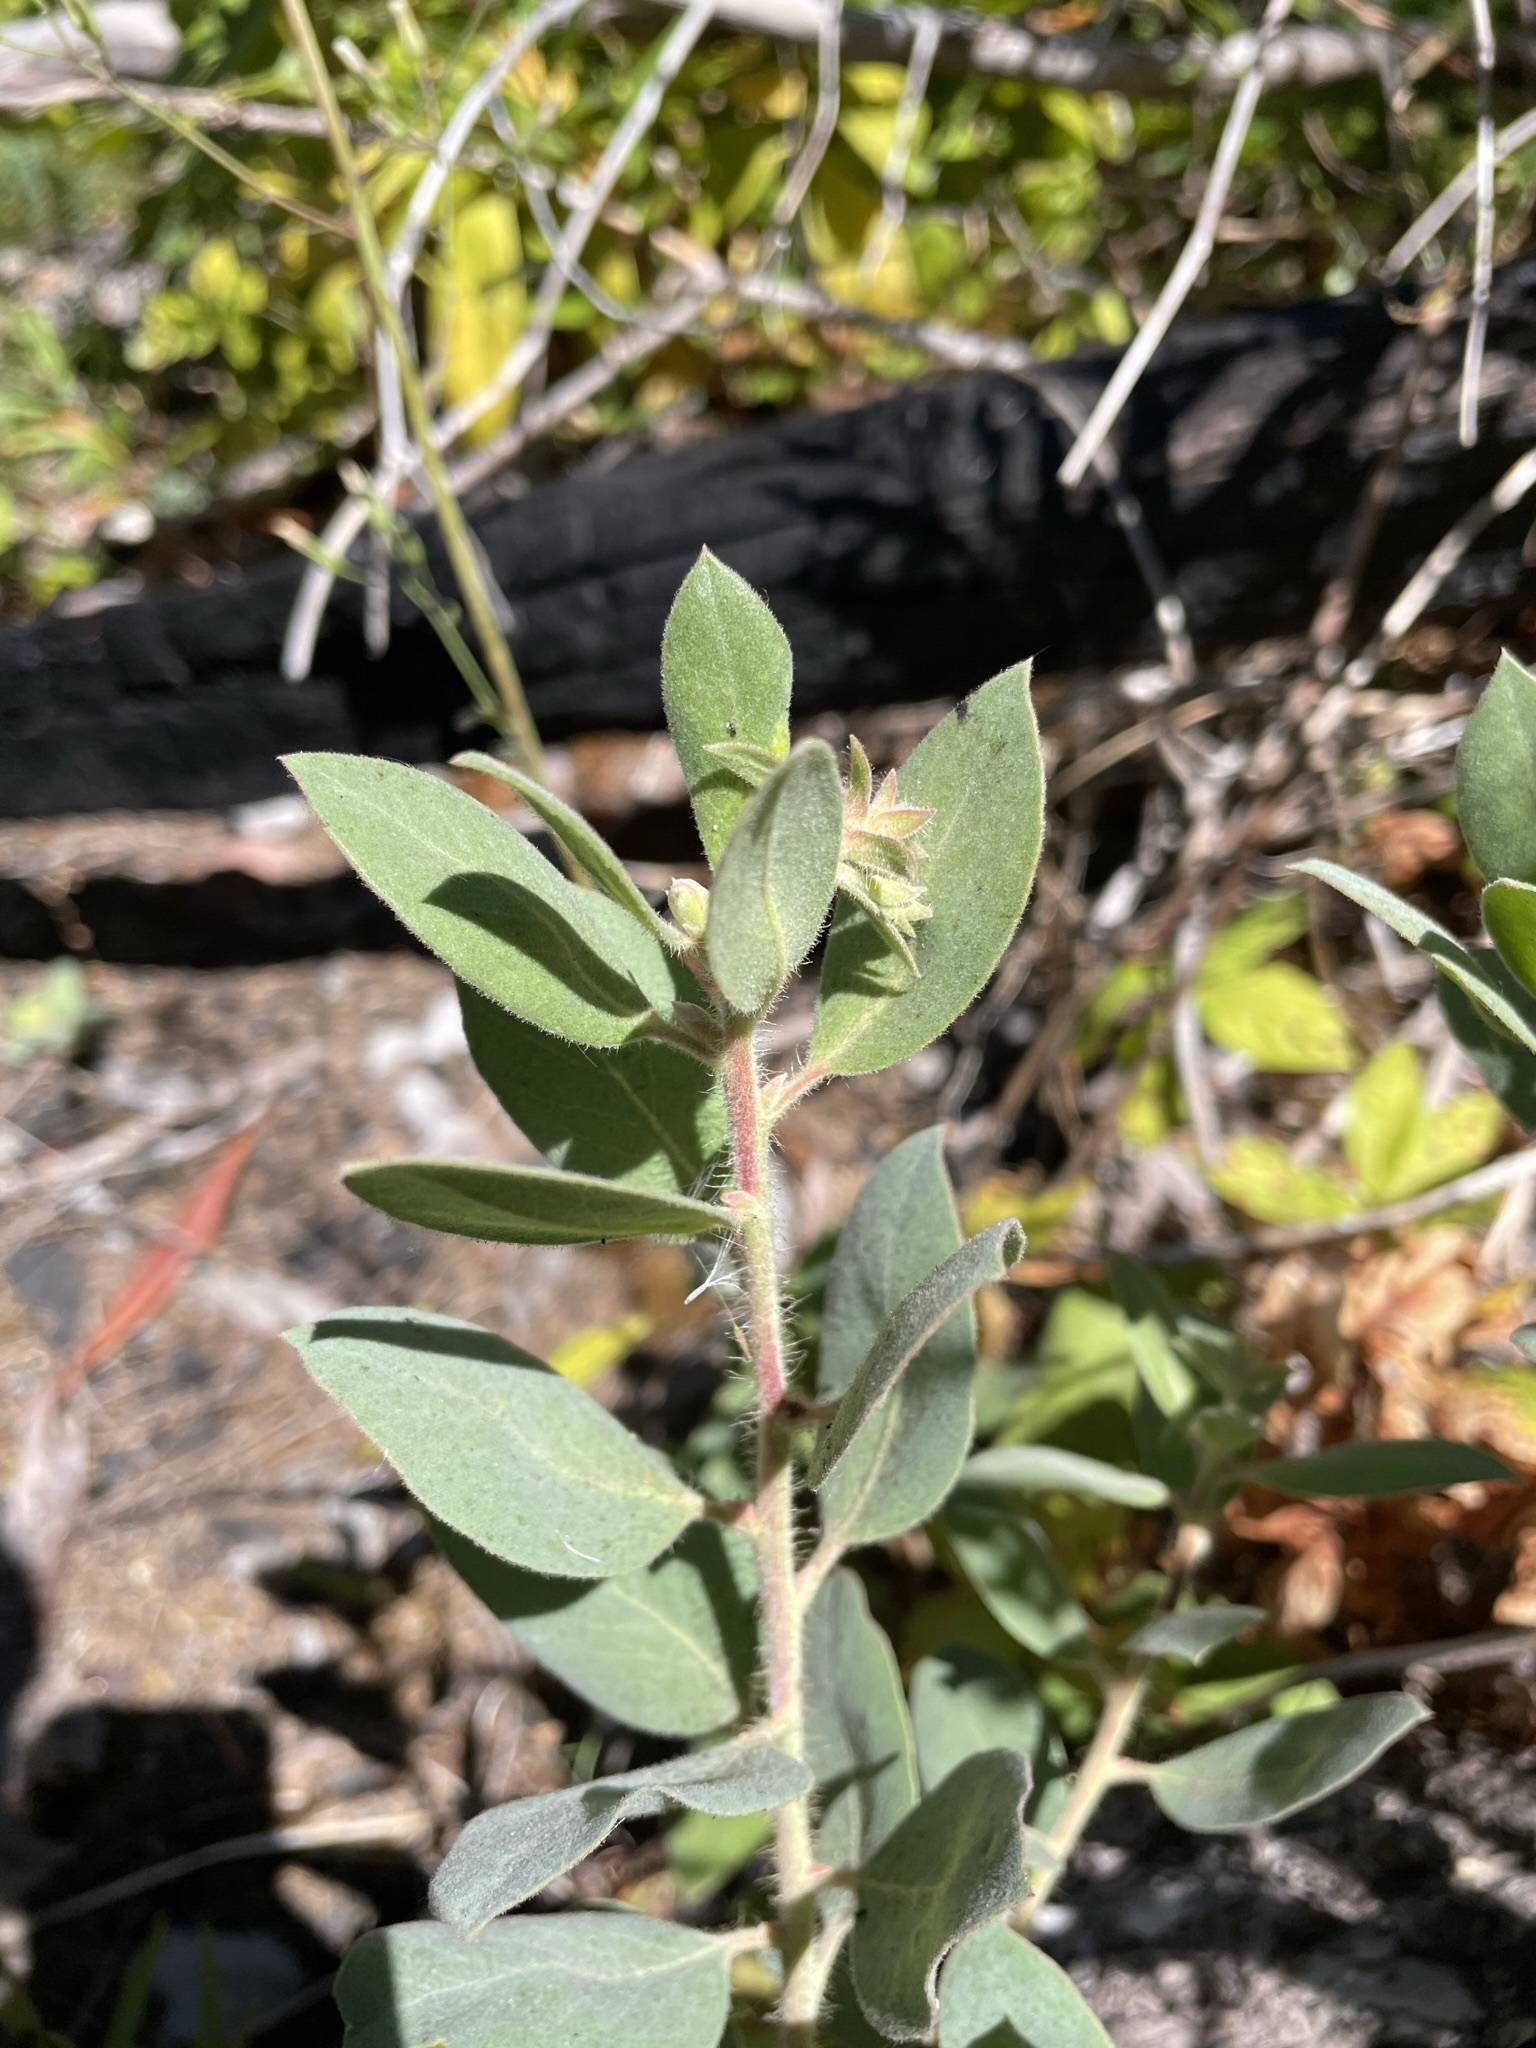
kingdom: Plantae
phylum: Tracheophyta
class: Magnoliopsida
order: Ericales
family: Ericaceae
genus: Arctostaphylos
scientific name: Arctostaphylos columbiana
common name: Bristly bearberry
